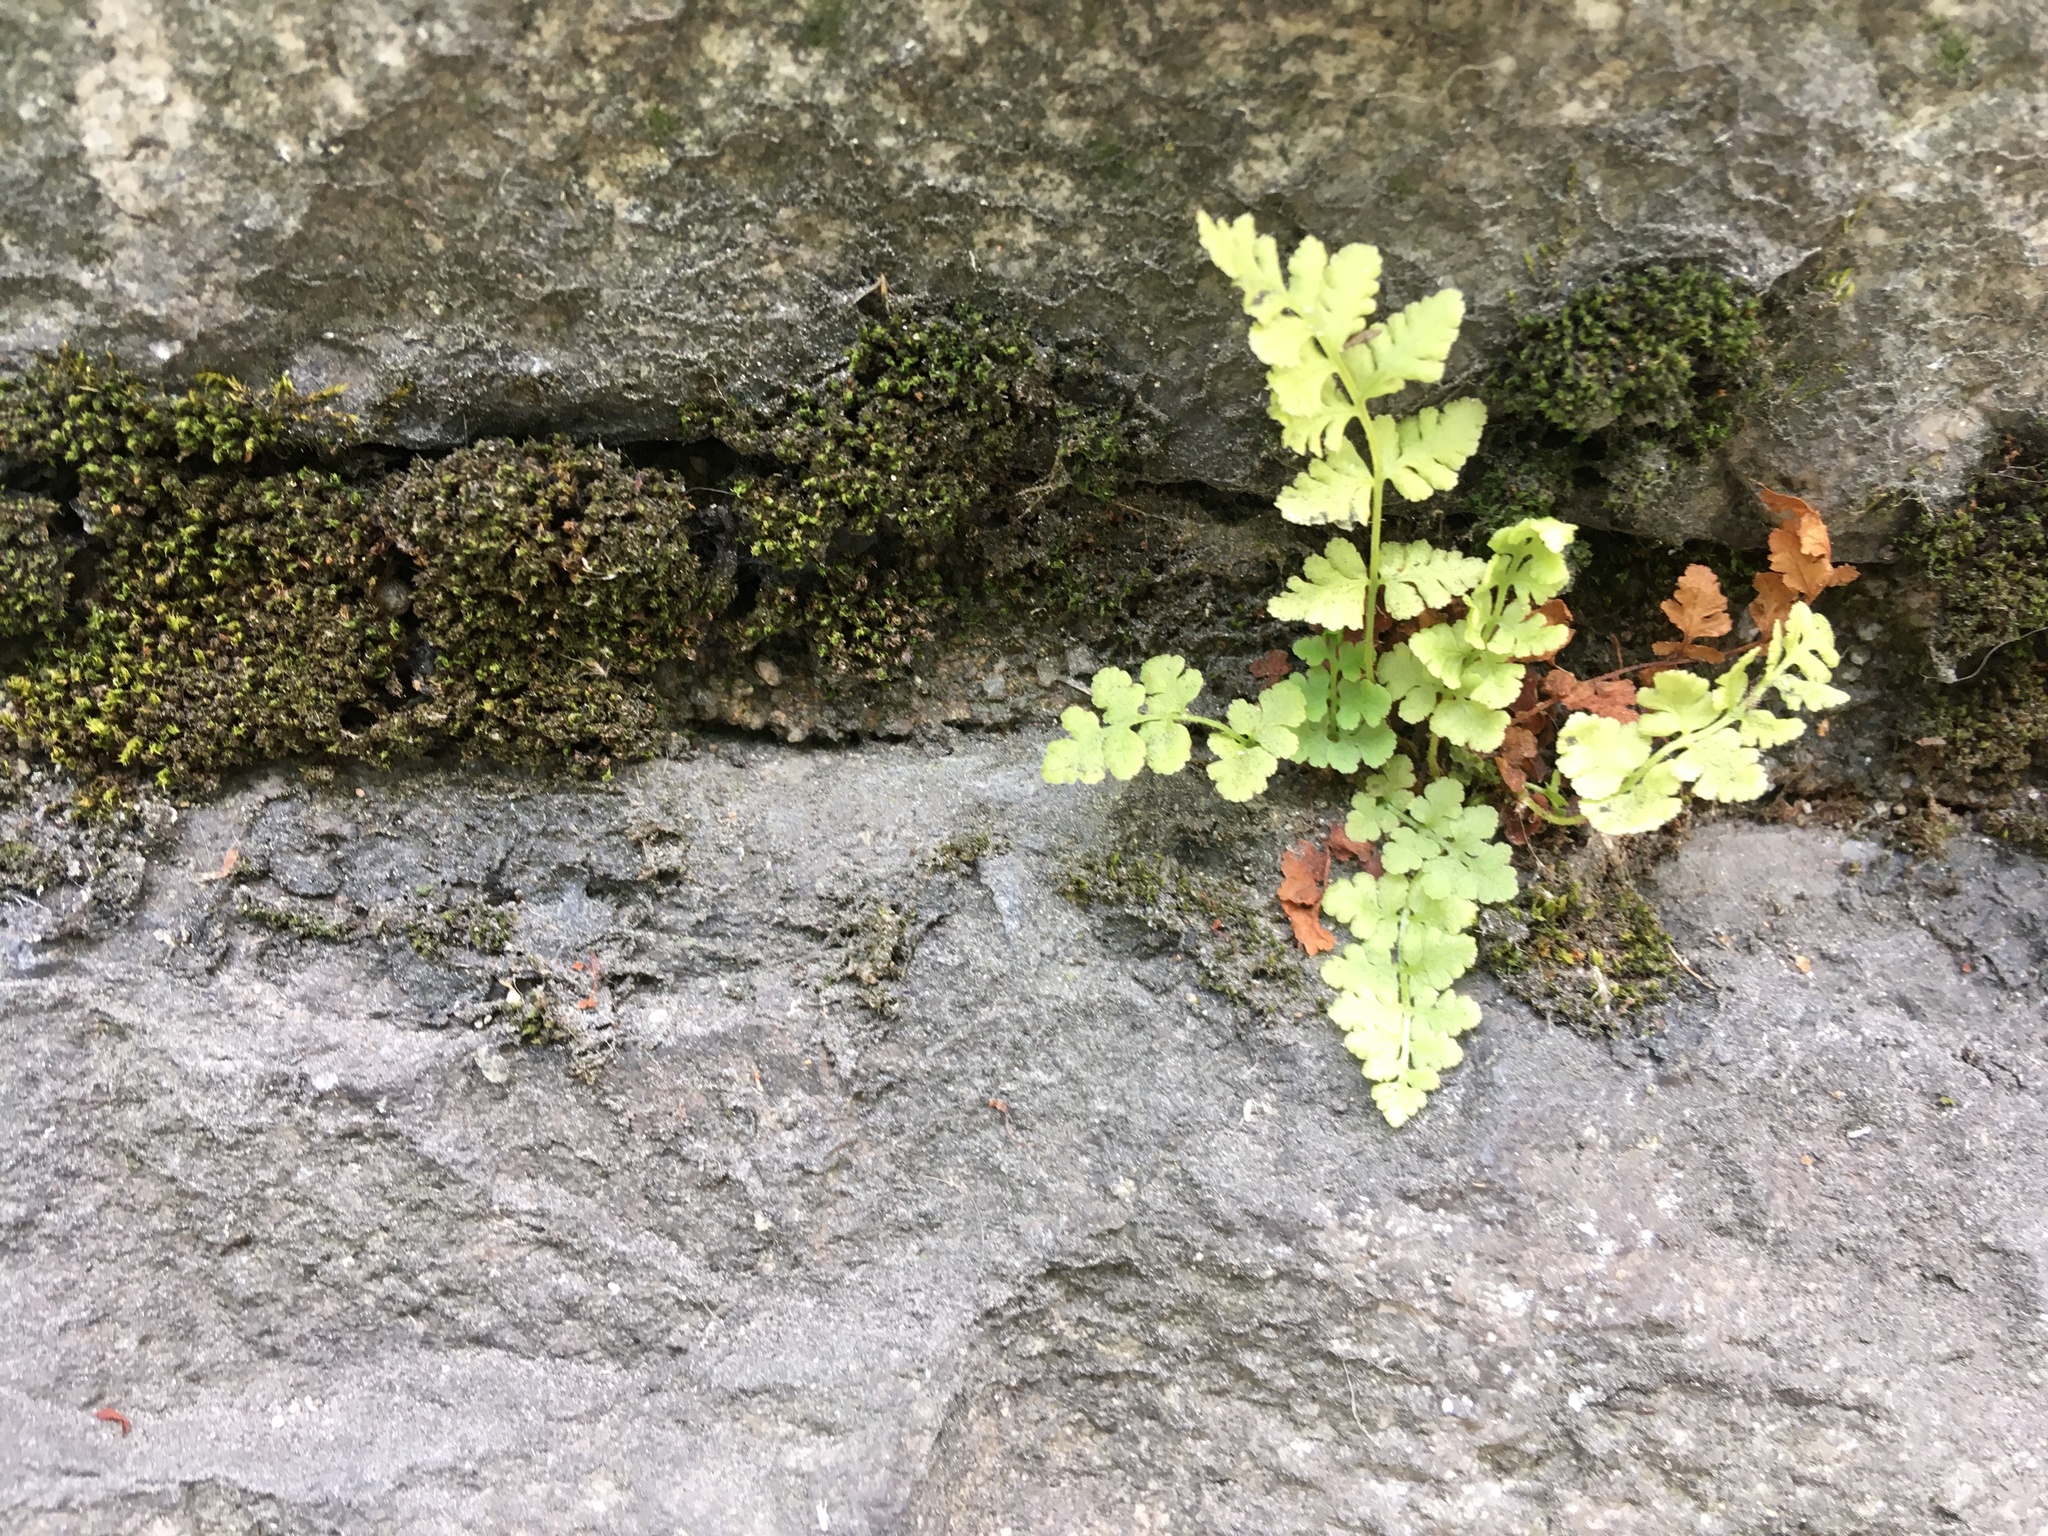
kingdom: Plantae
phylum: Tracheophyta
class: Polypodiopsida
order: Polypodiales
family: Woodsiaceae
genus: Physematium
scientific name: Physematium obtusum
